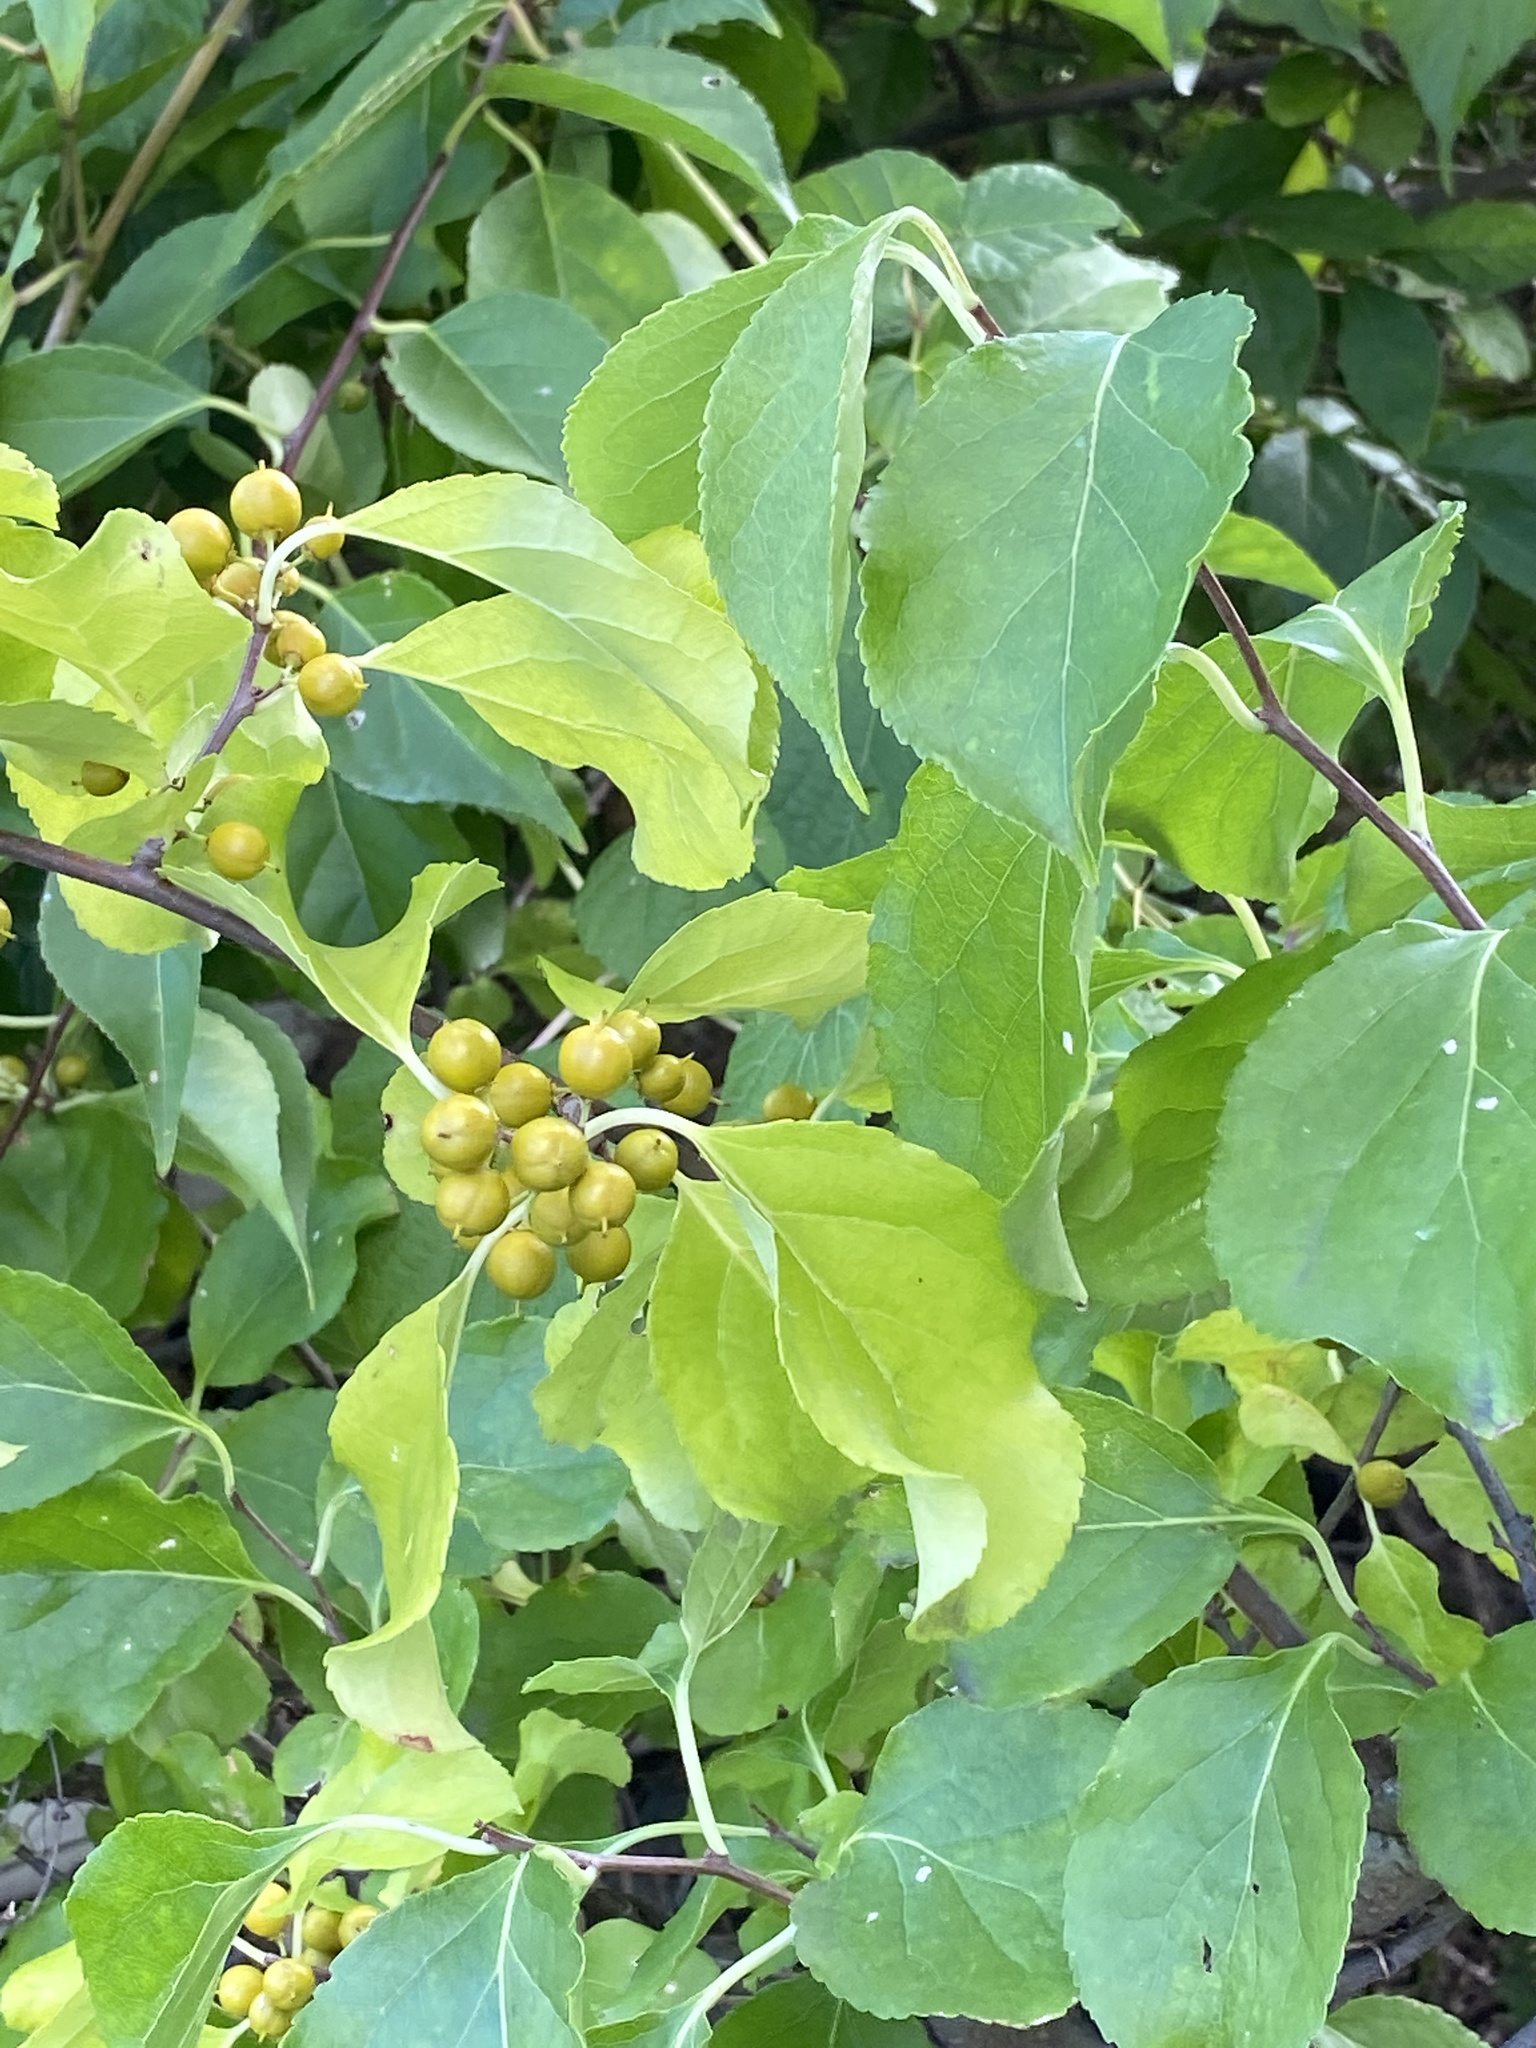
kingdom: Plantae
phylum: Tracheophyta
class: Magnoliopsida
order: Celastrales
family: Celastraceae
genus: Celastrus
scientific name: Celastrus orbiculatus
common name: Oriental bittersweet
